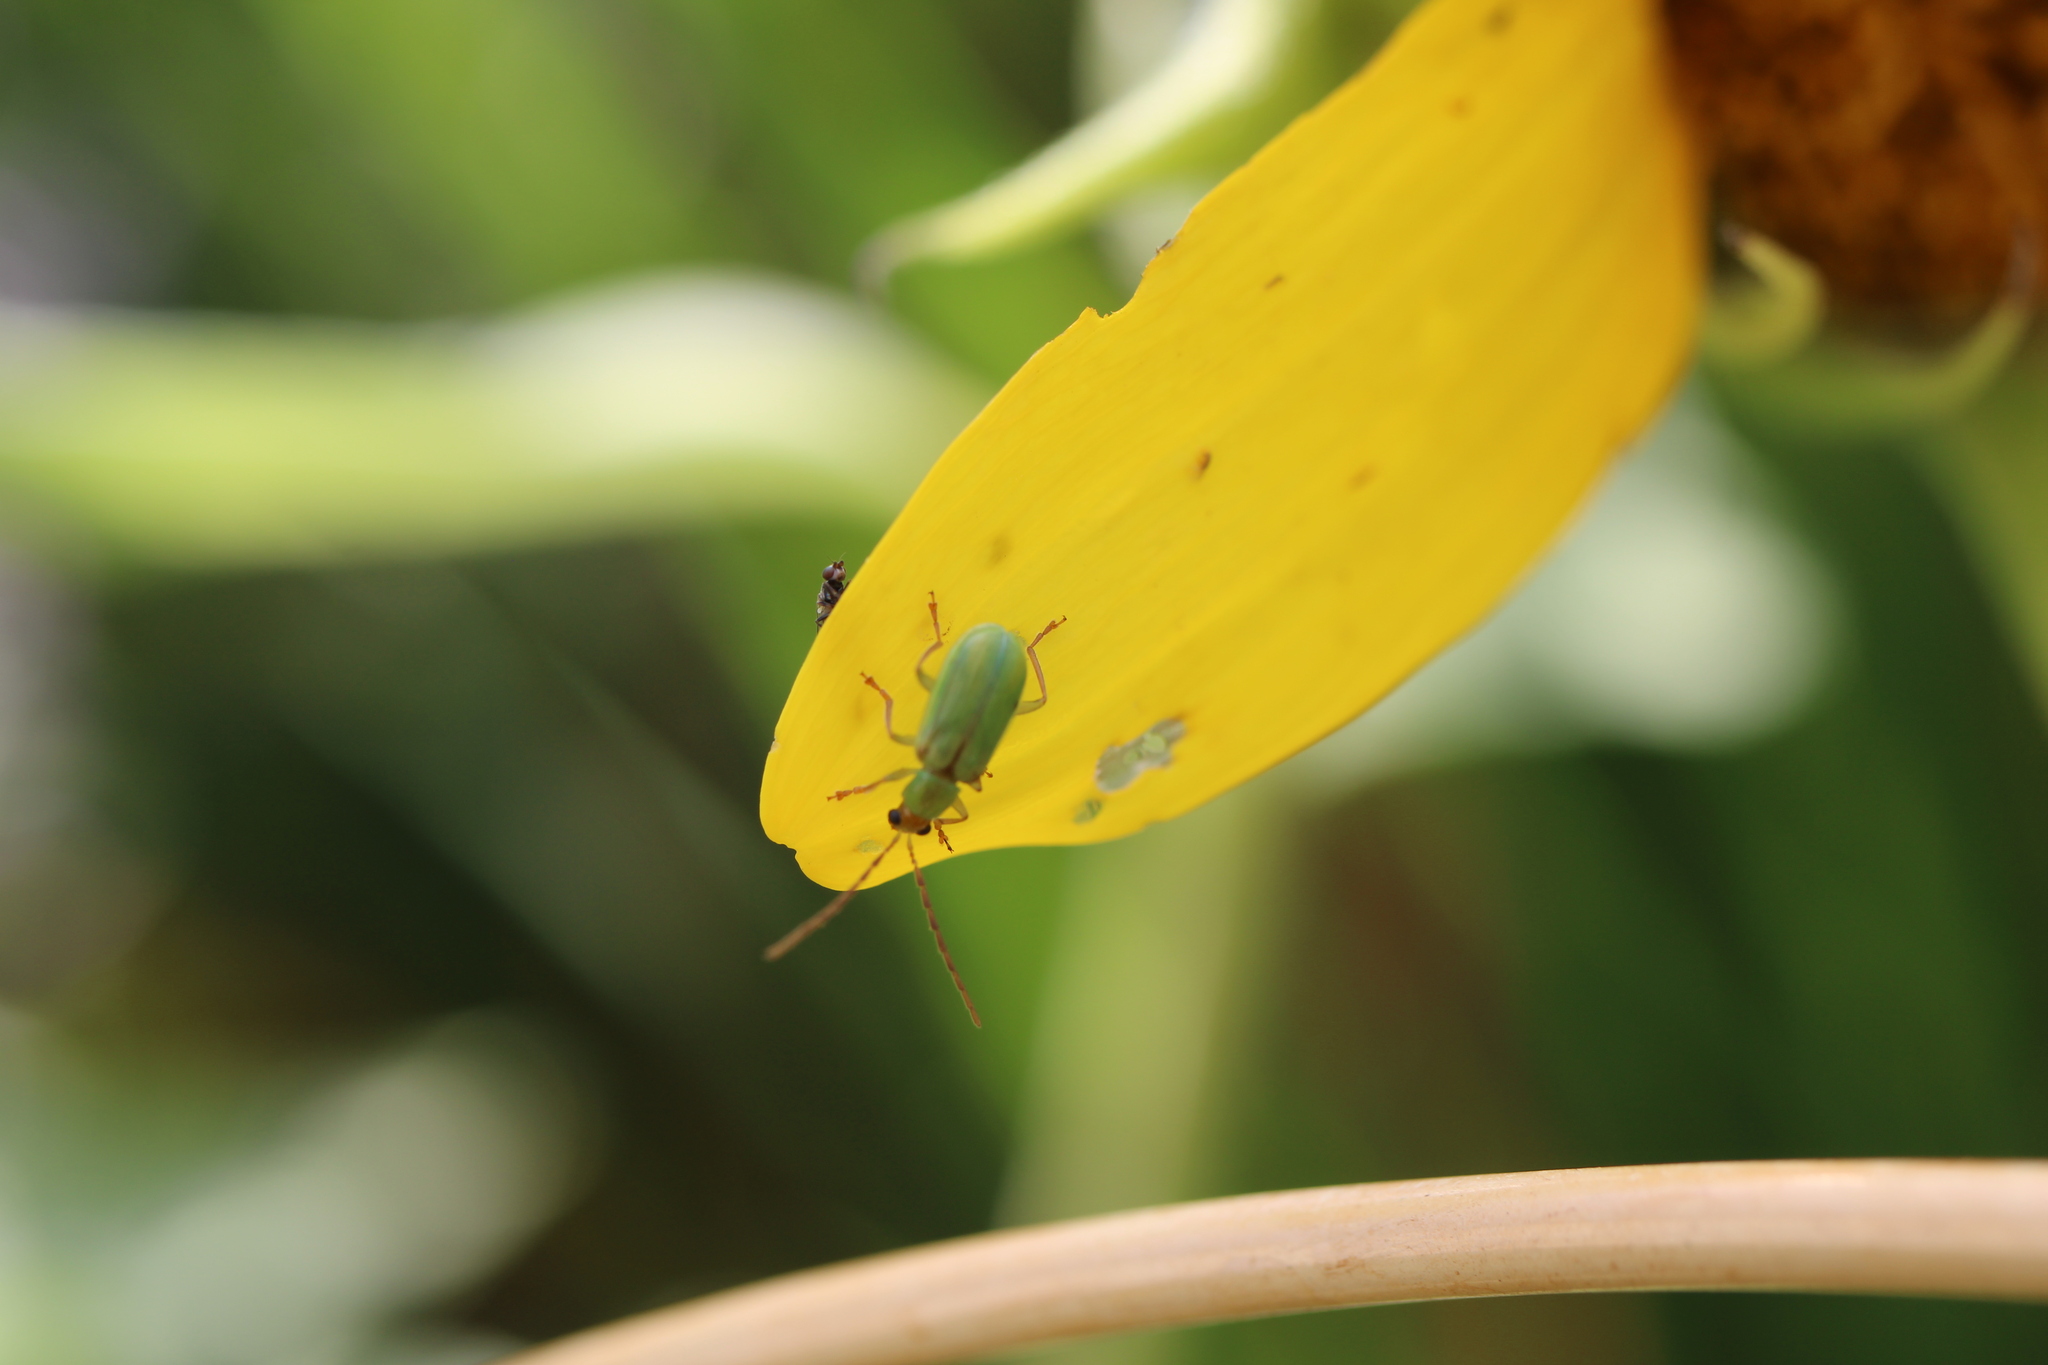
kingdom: Animalia
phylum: Arthropoda
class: Insecta
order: Coleoptera
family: Chrysomelidae
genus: Diabrotica
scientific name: Diabrotica barberi
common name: Northern corn rootworm
